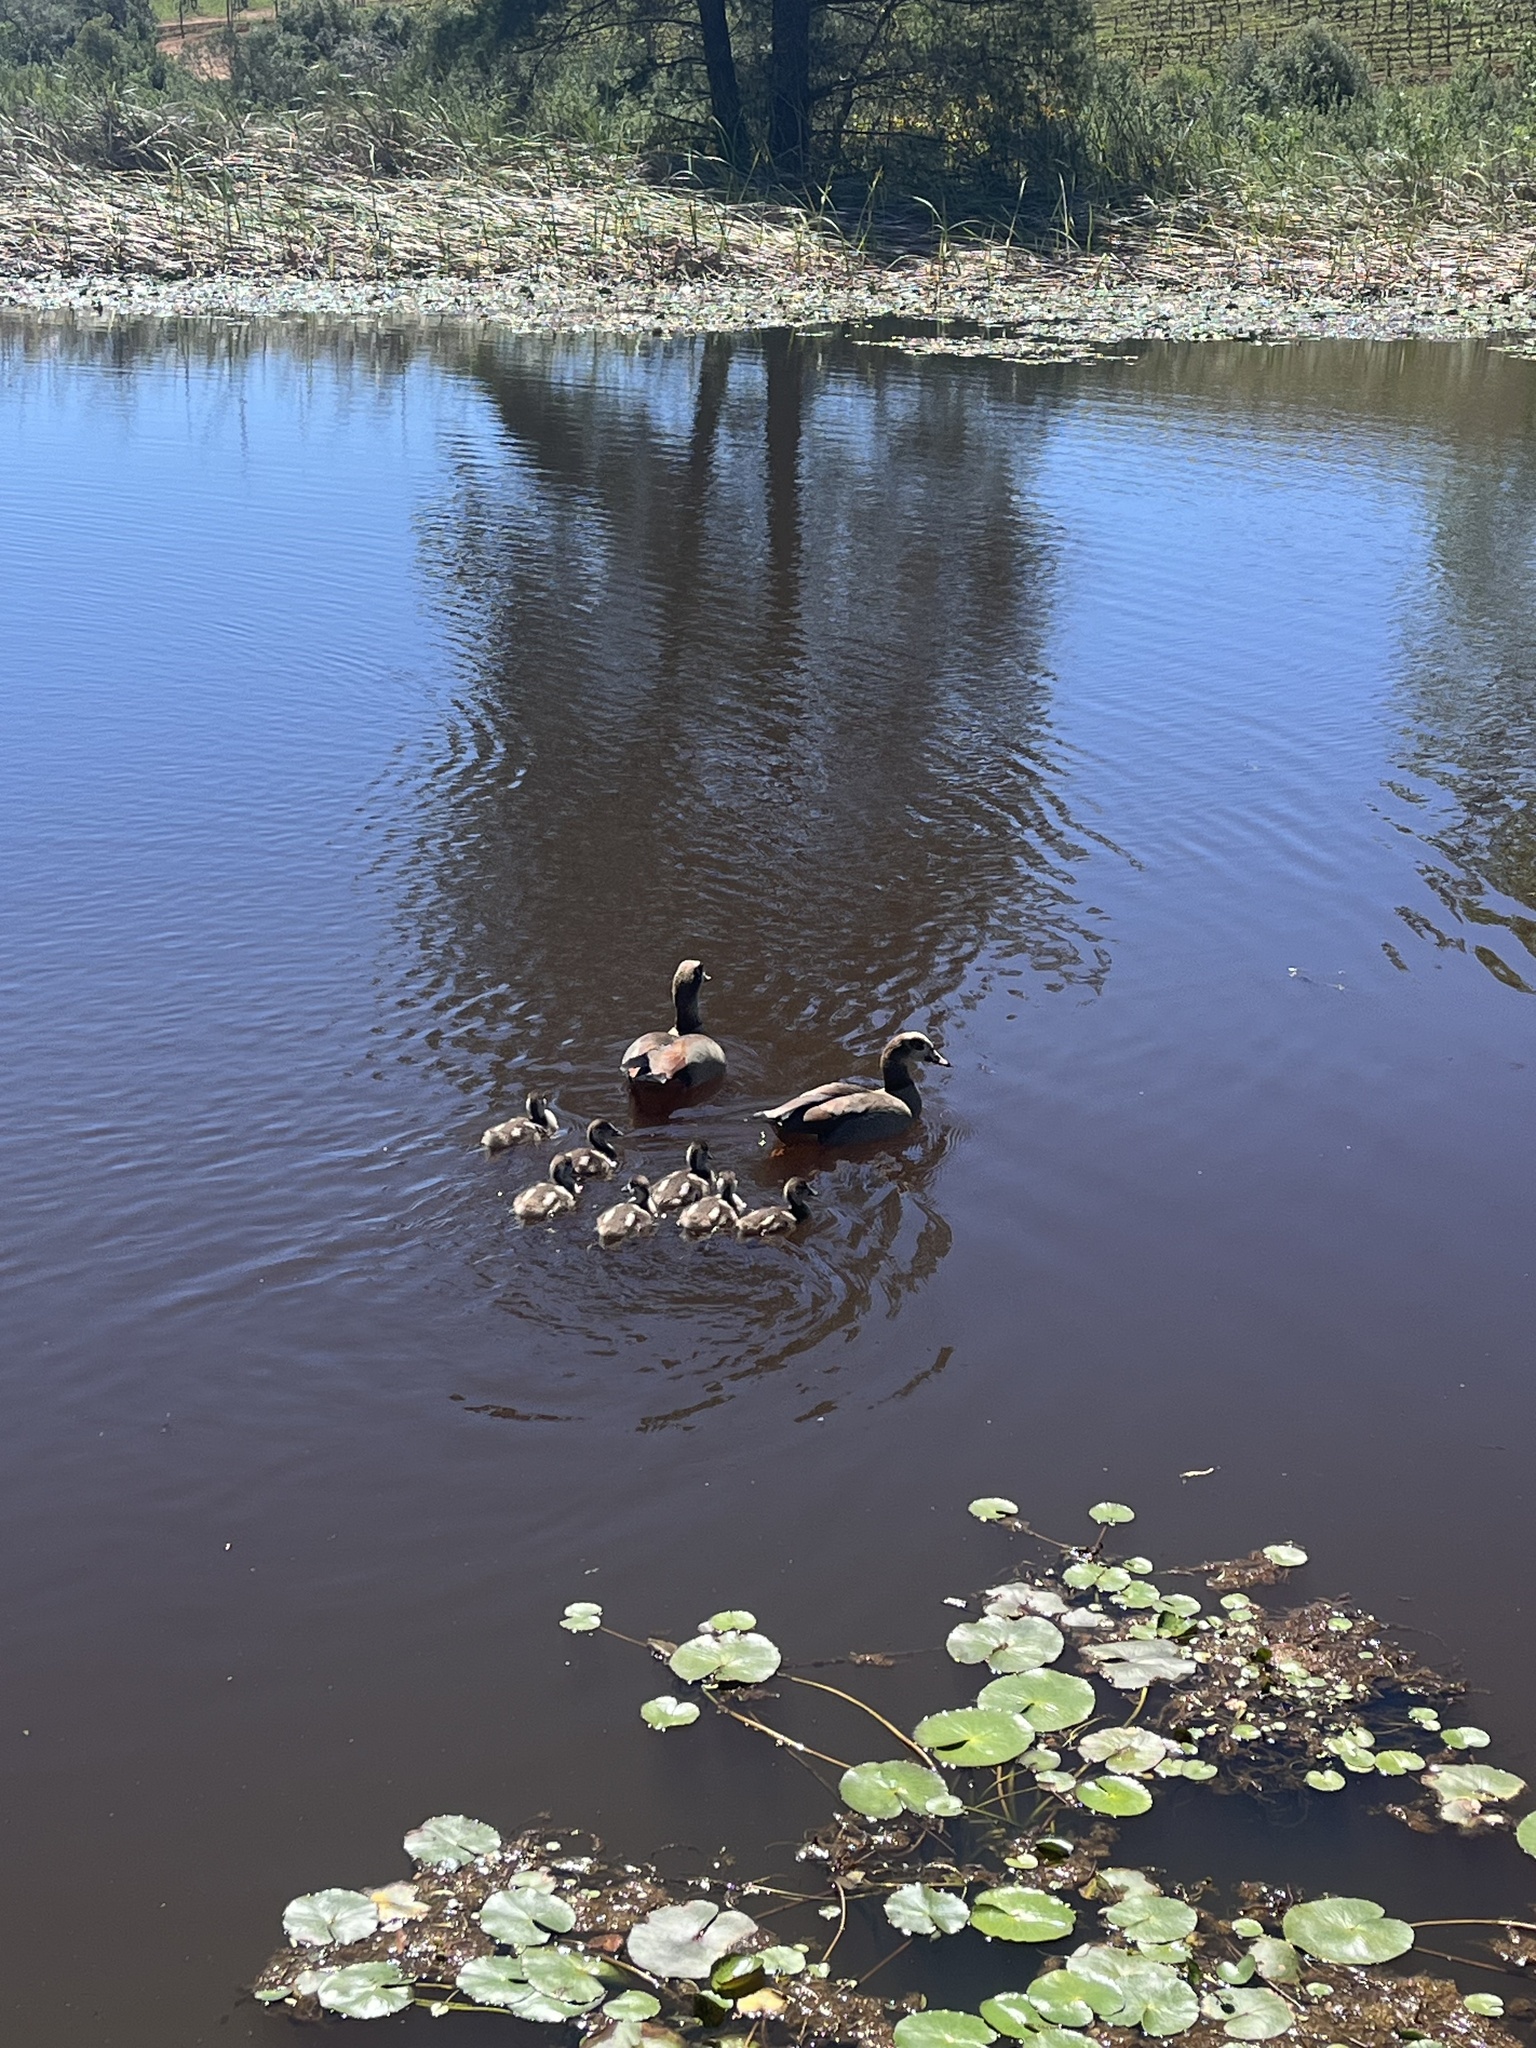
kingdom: Animalia
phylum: Chordata
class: Aves
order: Anseriformes
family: Anatidae
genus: Alopochen
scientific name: Alopochen aegyptiaca
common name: Egyptian goose
